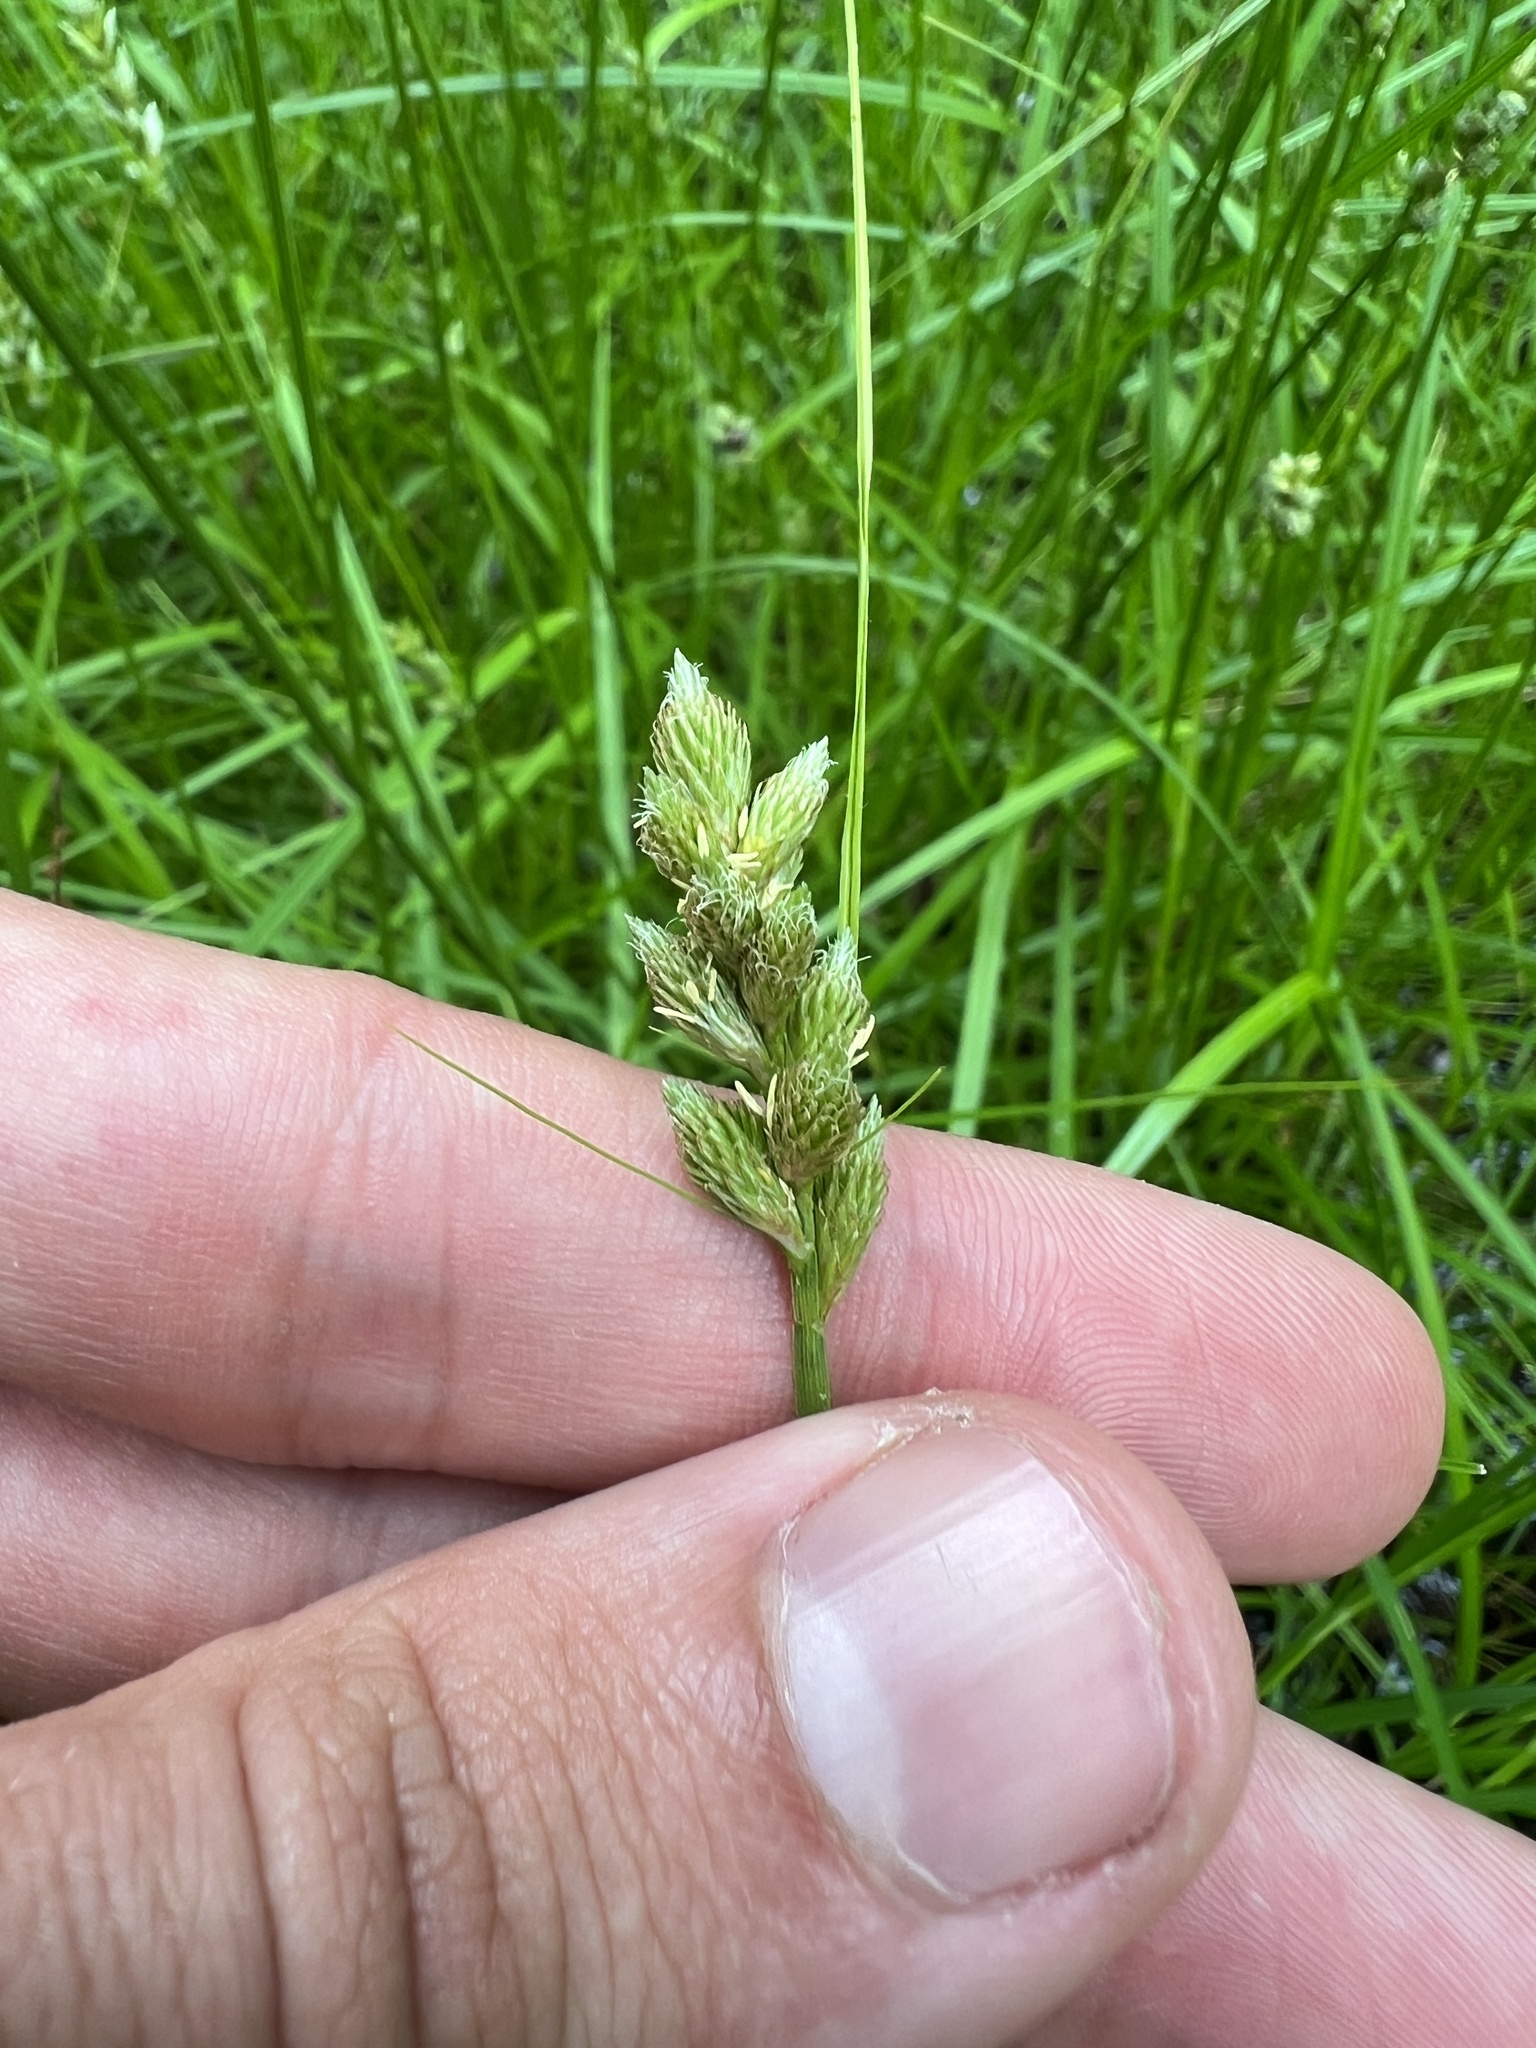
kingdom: Plantae
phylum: Tracheophyta
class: Liliopsida
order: Poales
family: Cyperaceae
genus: Carex
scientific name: Carex tribuloides
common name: Blunt broom sedge
